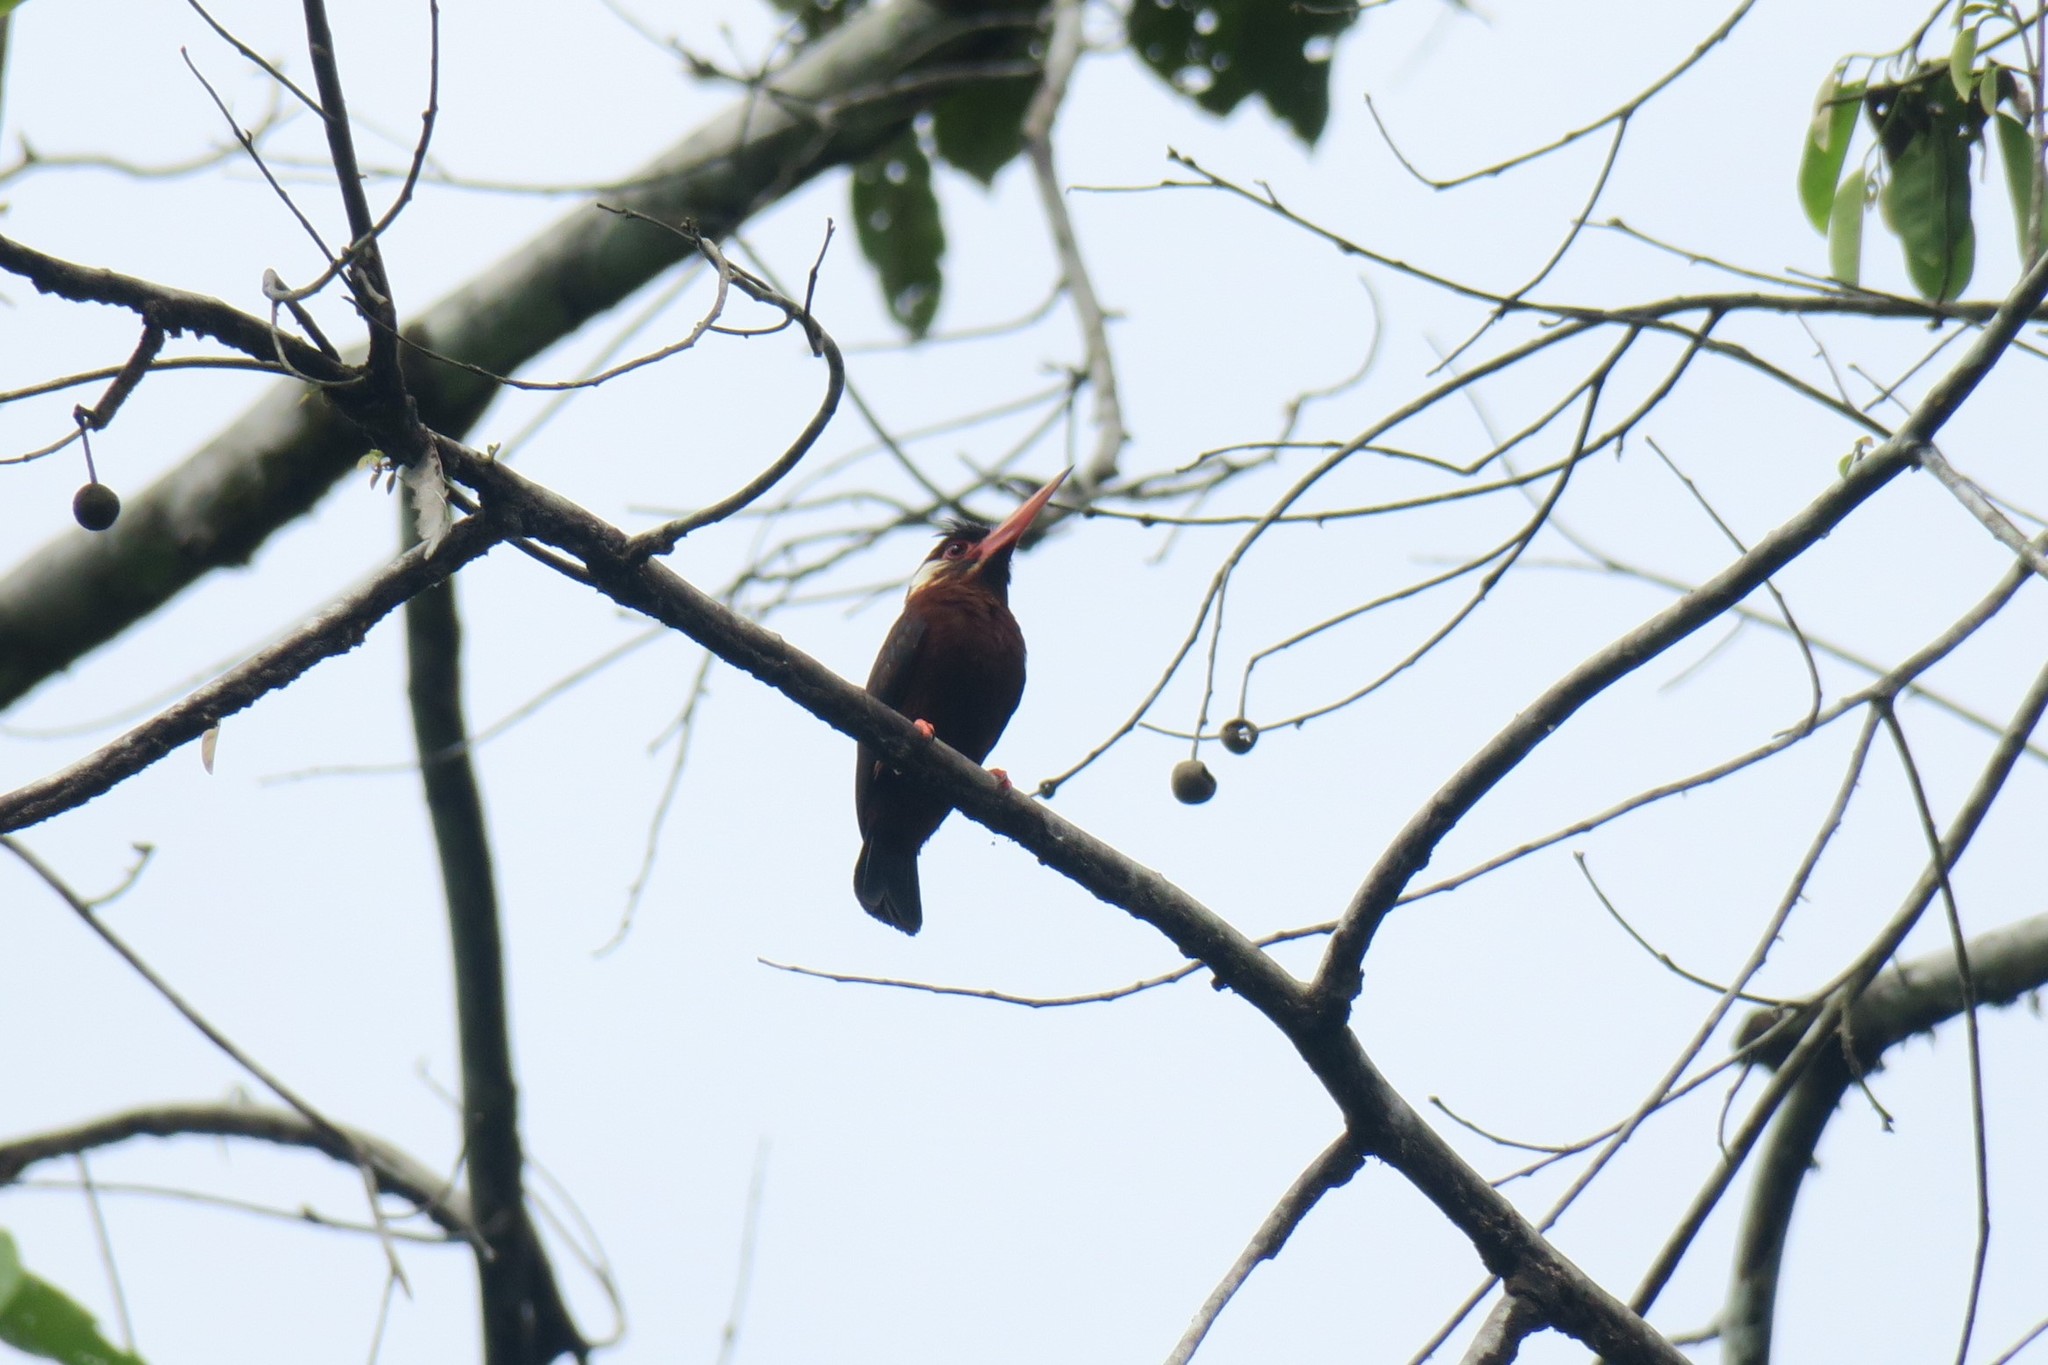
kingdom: Animalia
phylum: Chordata
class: Aves
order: Piciformes
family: Galbulidae
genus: Galbalcyrhynchus
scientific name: Galbalcyrhynchus leucotis
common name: White-eared jacamar
